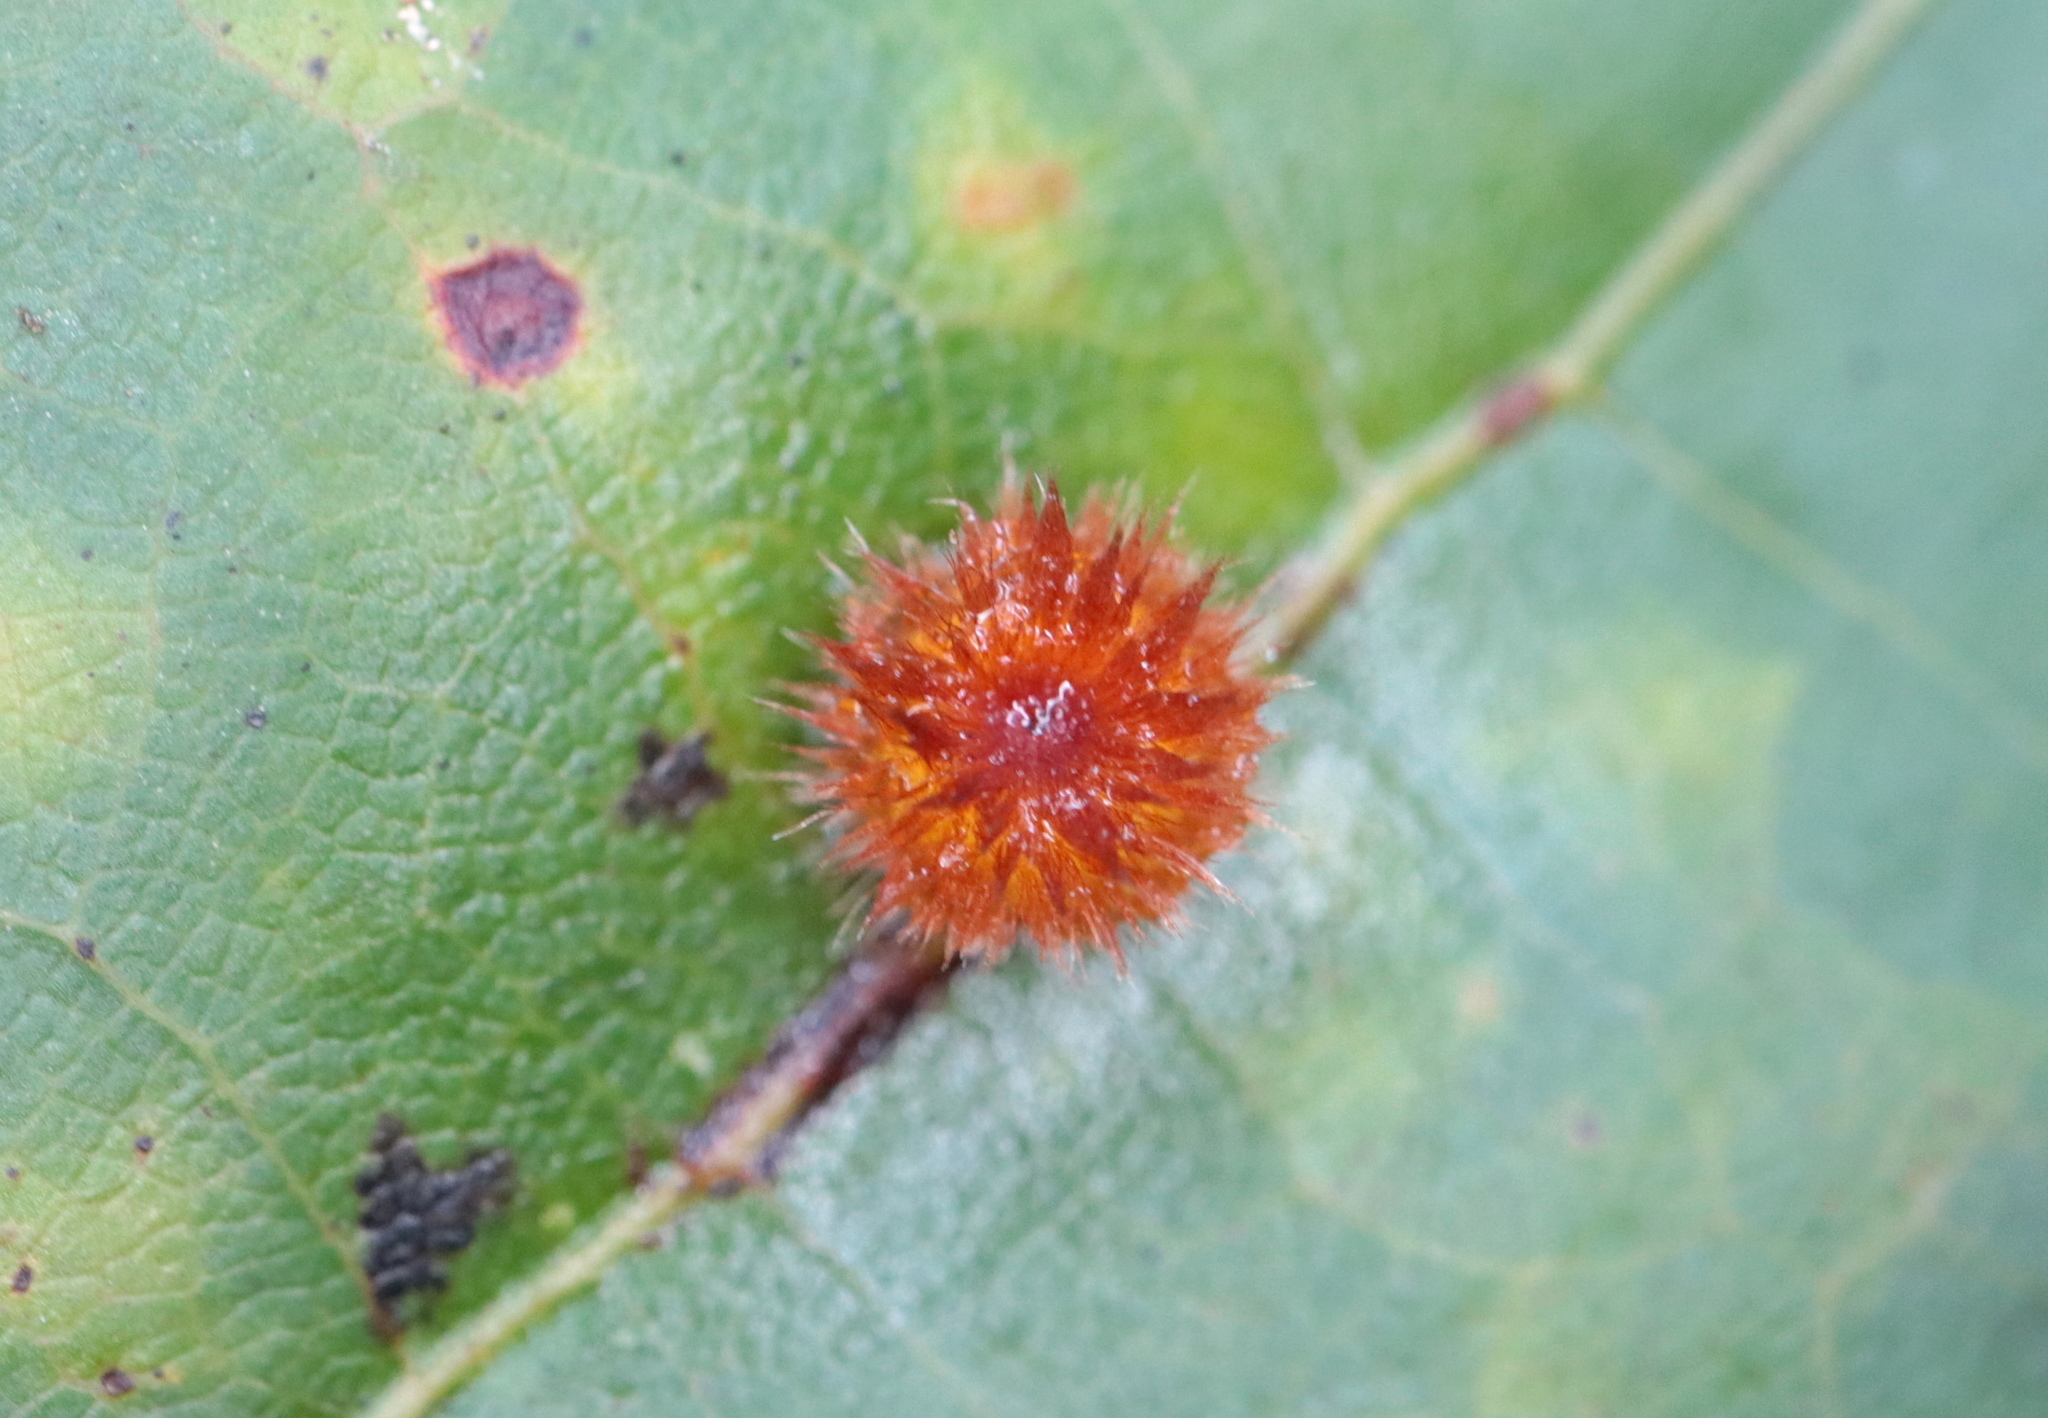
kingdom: Animalia
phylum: Arthropoda
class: Insecta
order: Hymenoptera
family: Cynipidae
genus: Callirhytis
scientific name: Callirhytis
